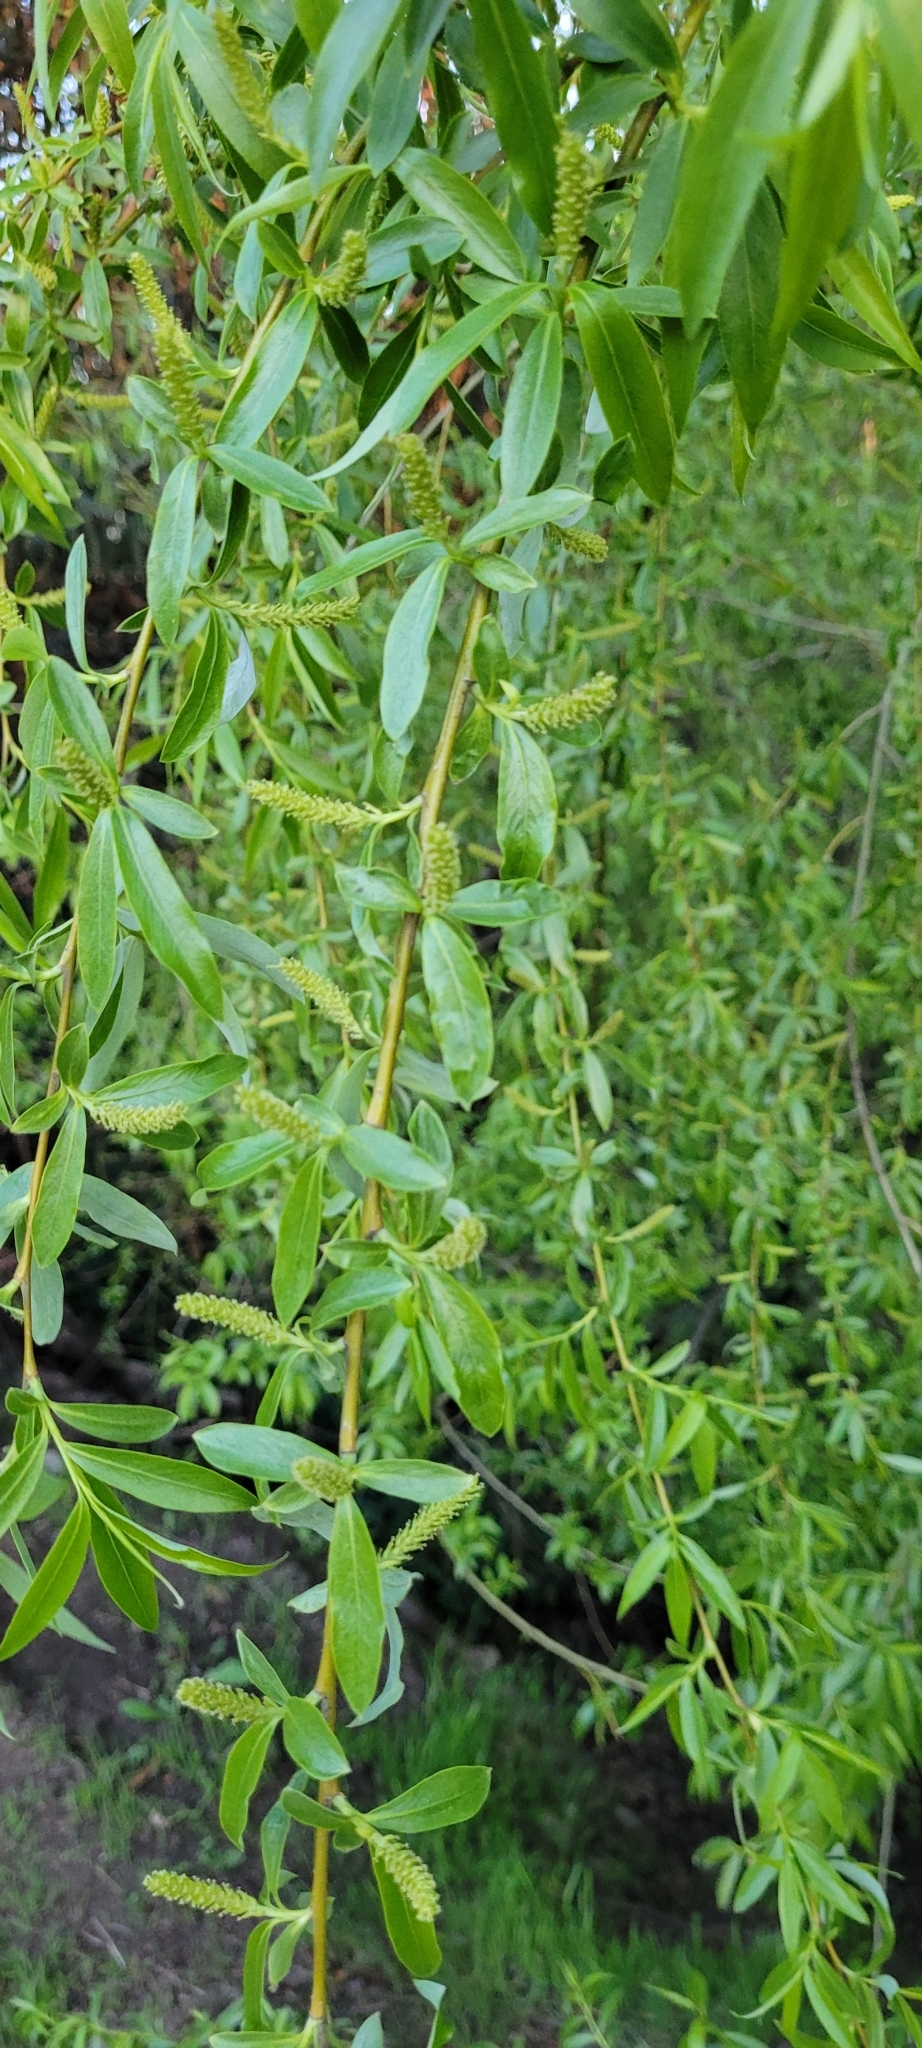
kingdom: Plantae
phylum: Tracheophyta
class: Magnoliopsida
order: Malpighiales
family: Salicaceae
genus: Salix
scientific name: Salix babylonica
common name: Weeping willow
